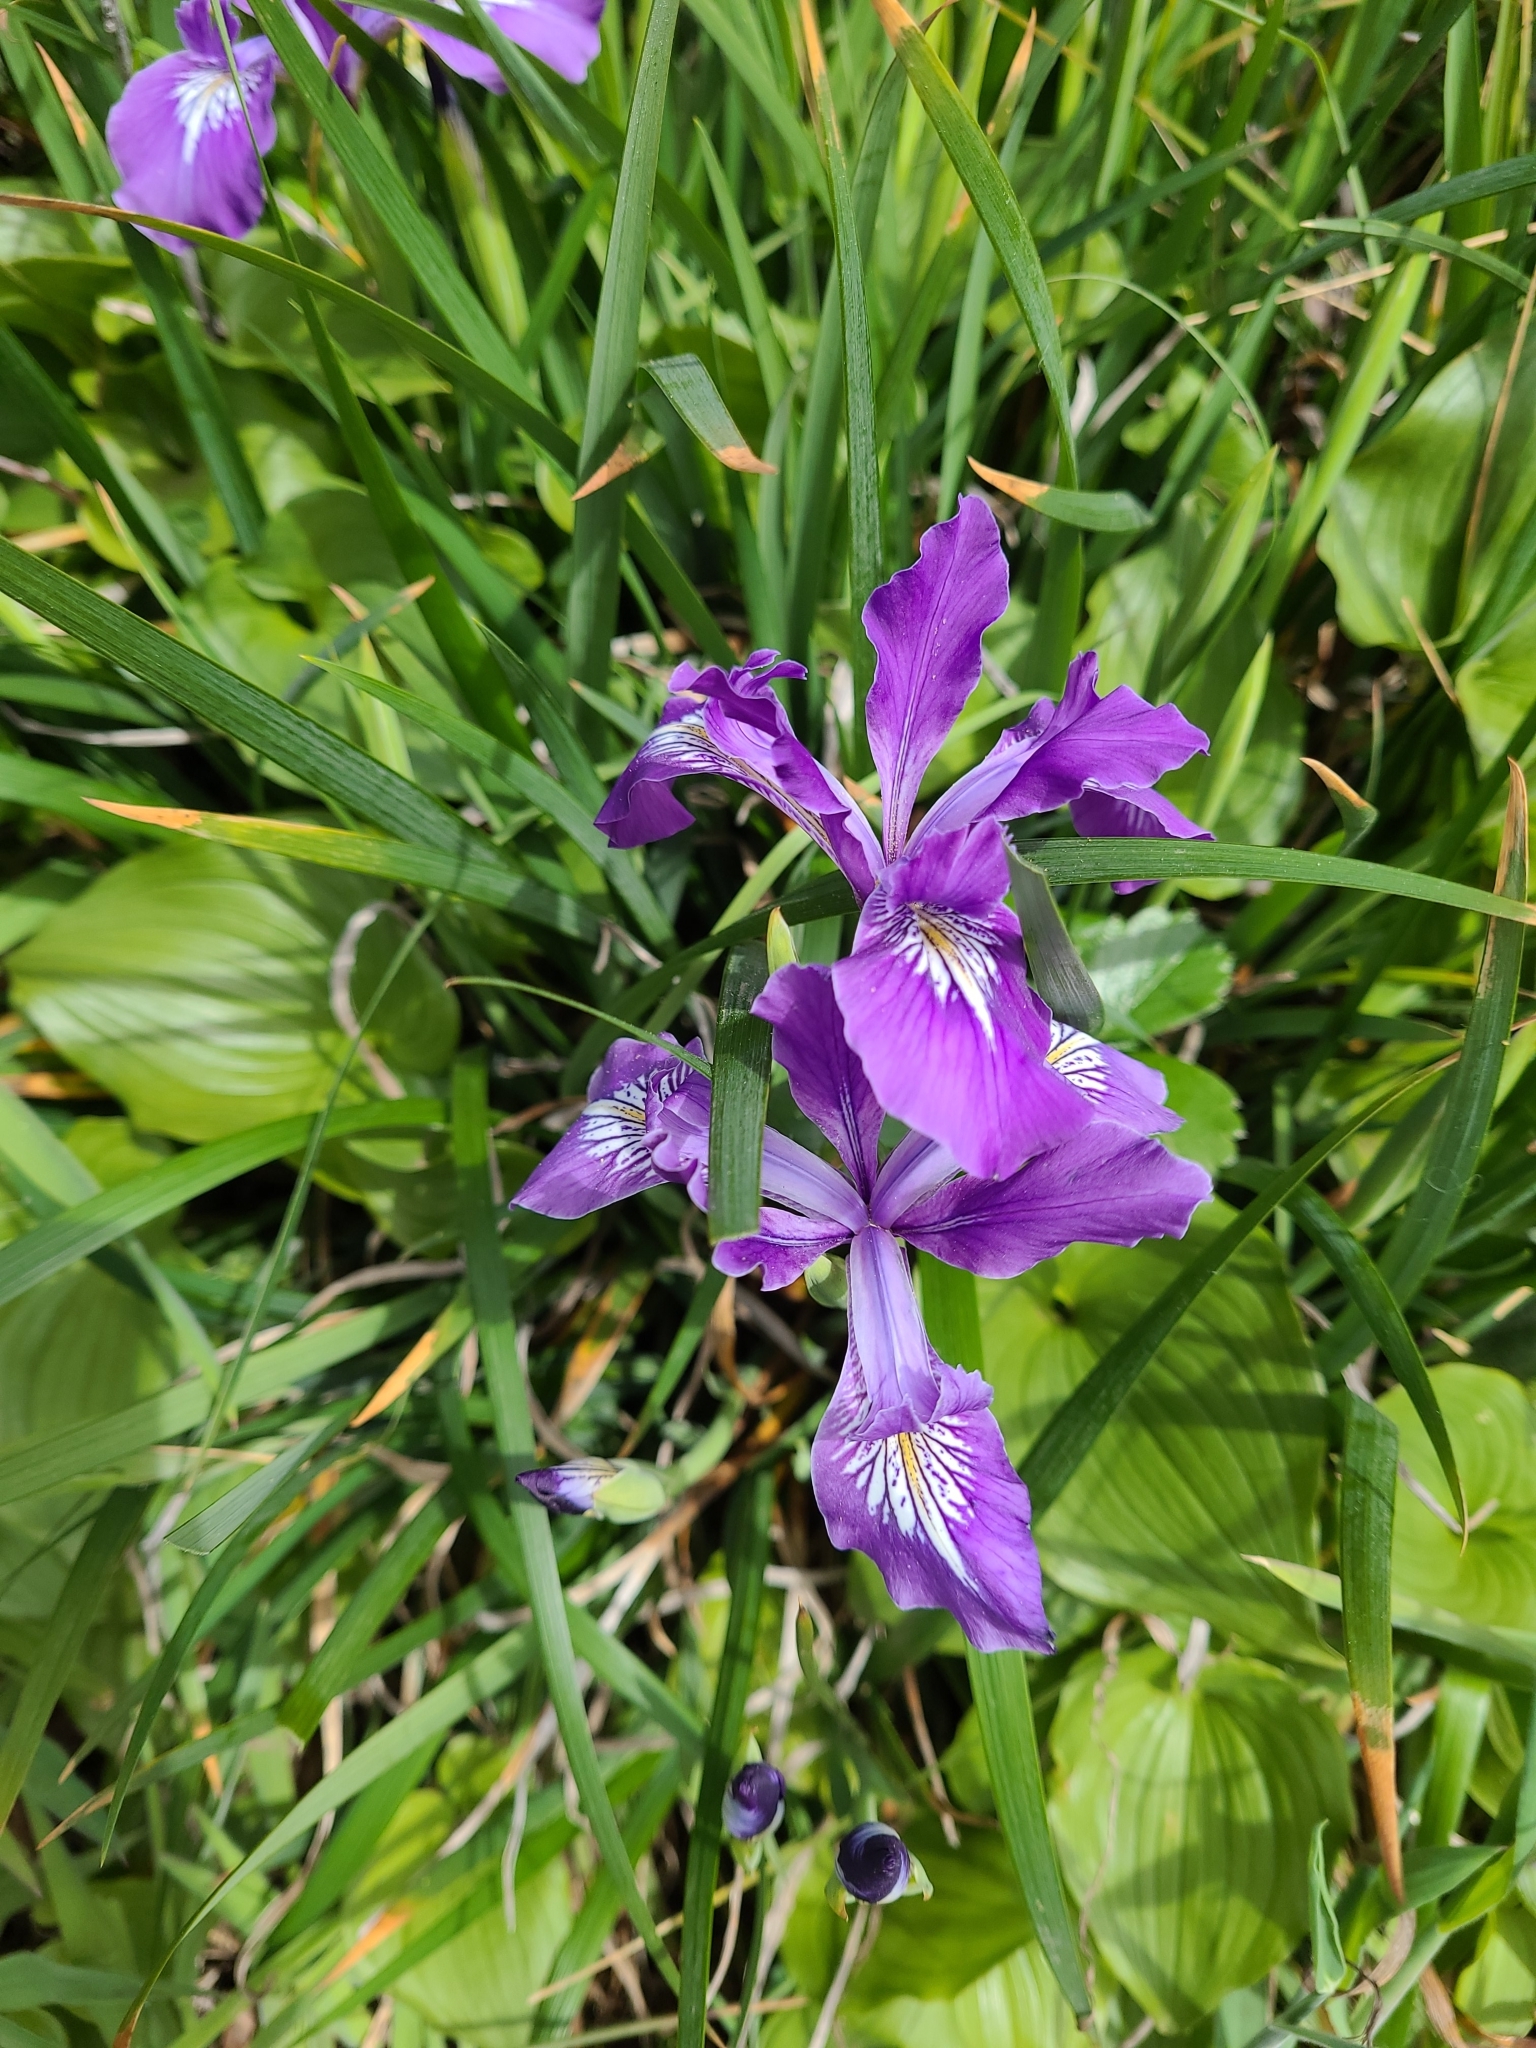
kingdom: Plantae
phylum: Tracheophyta
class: Liliopsida
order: Asparagales
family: Iridaceae
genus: Iris
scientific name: Iris tenax
